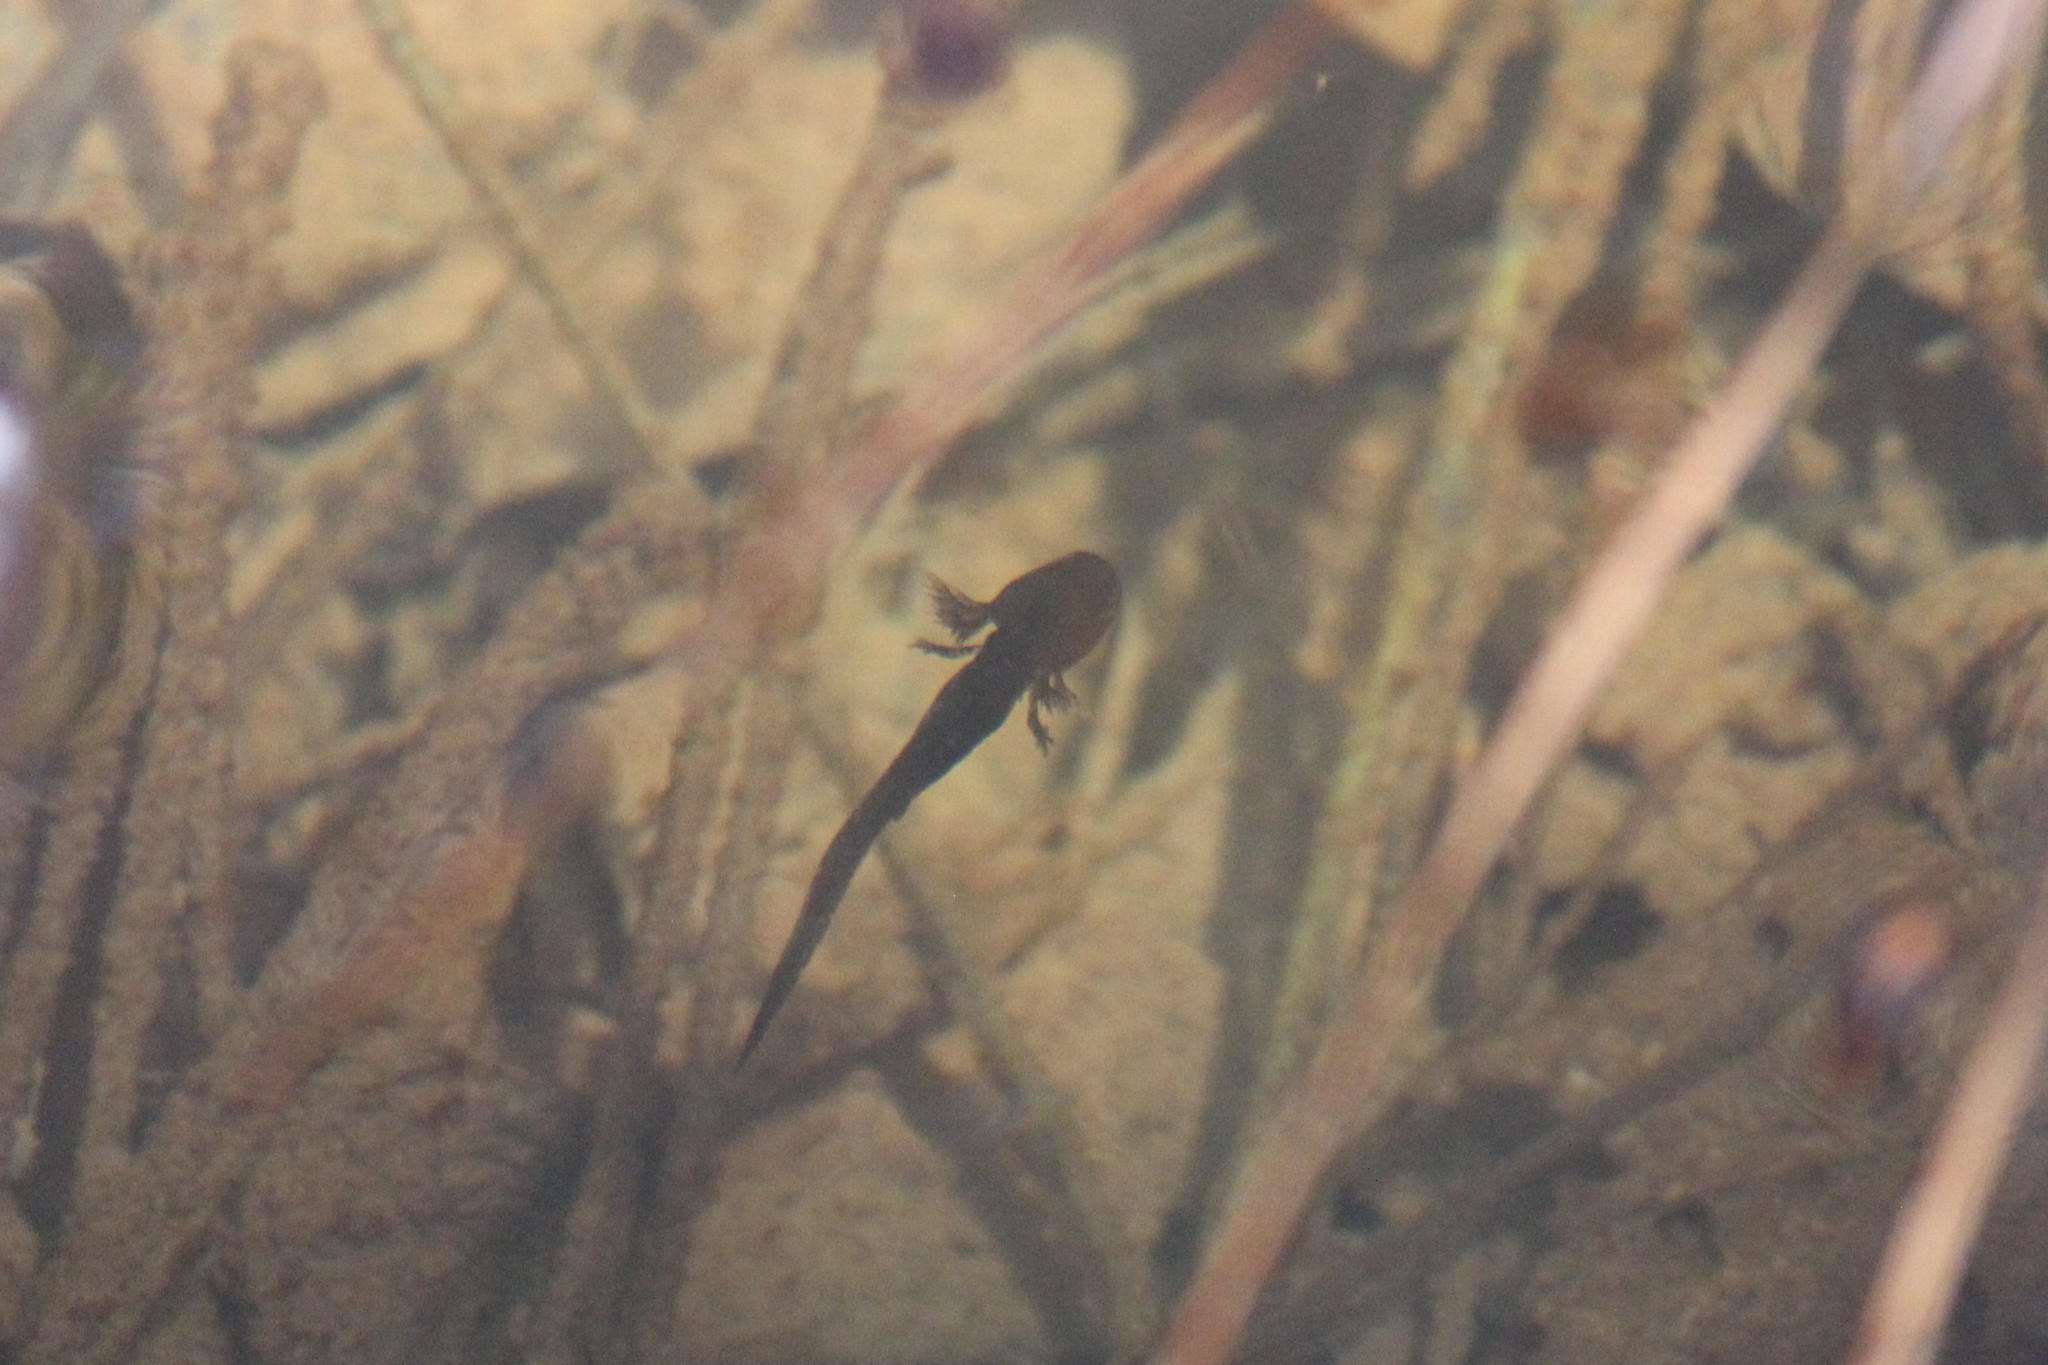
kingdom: Animalia
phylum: Chordata
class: Amphibia
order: Caudata
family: Ambystomatidae
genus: Ambystoma
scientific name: Ambystoma opacum
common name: Marbled salamander
